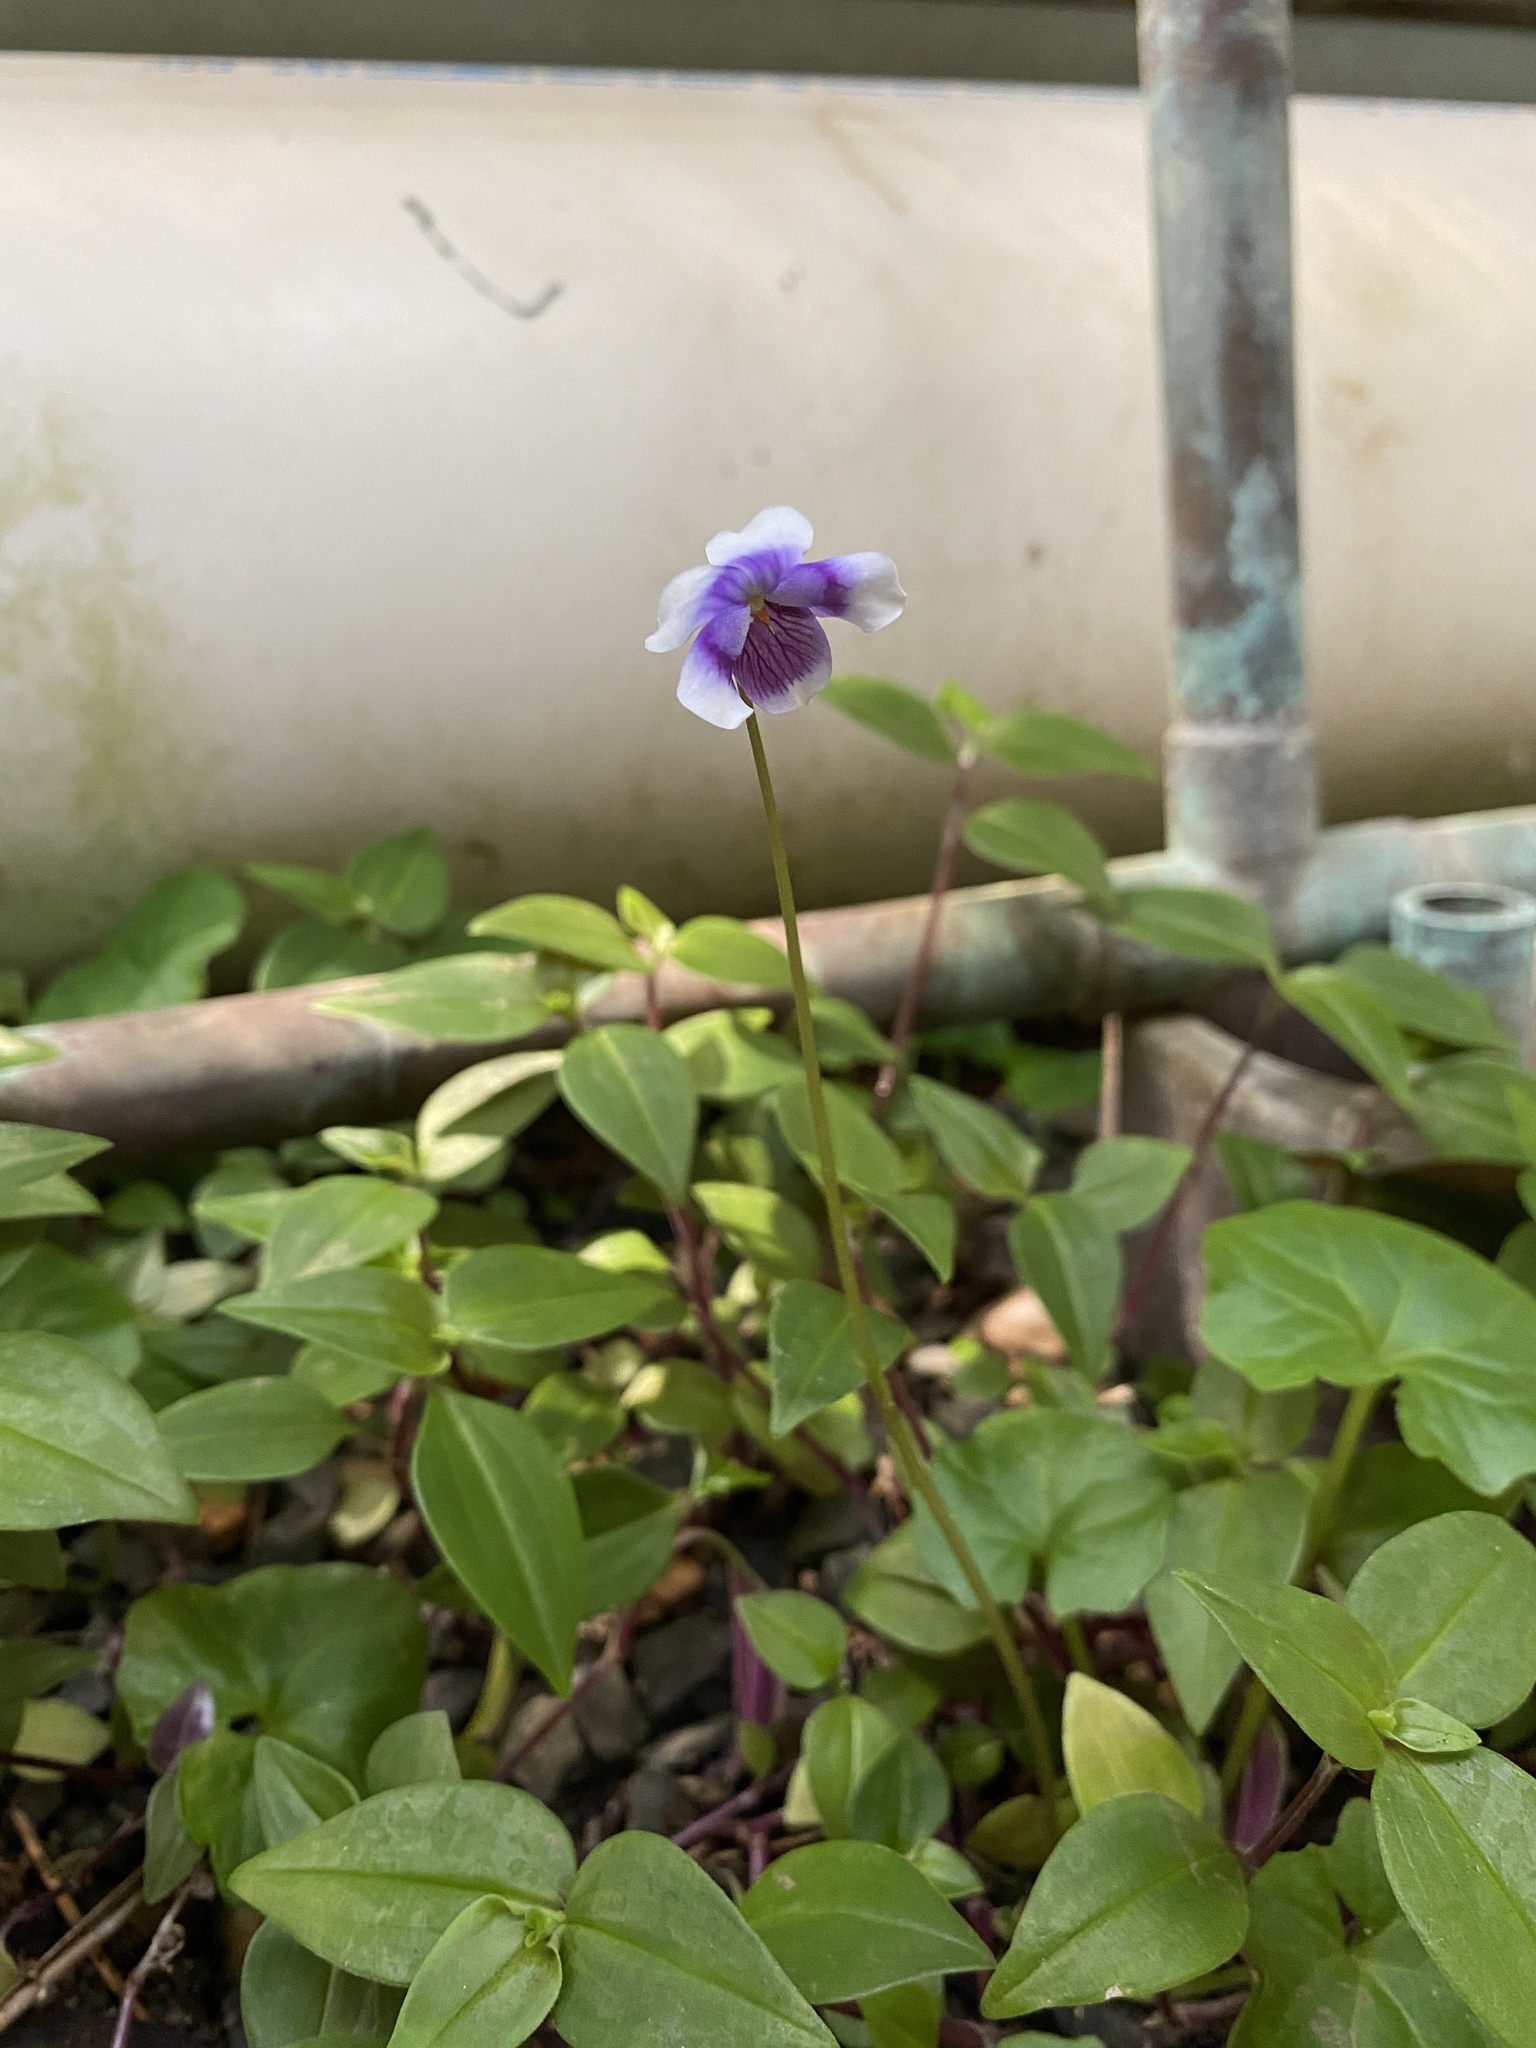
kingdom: Plantae
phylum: Tracheophyta
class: Magnoliopsida
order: Malpighiales
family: Violaceae
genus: Viola
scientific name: Viola banksii
